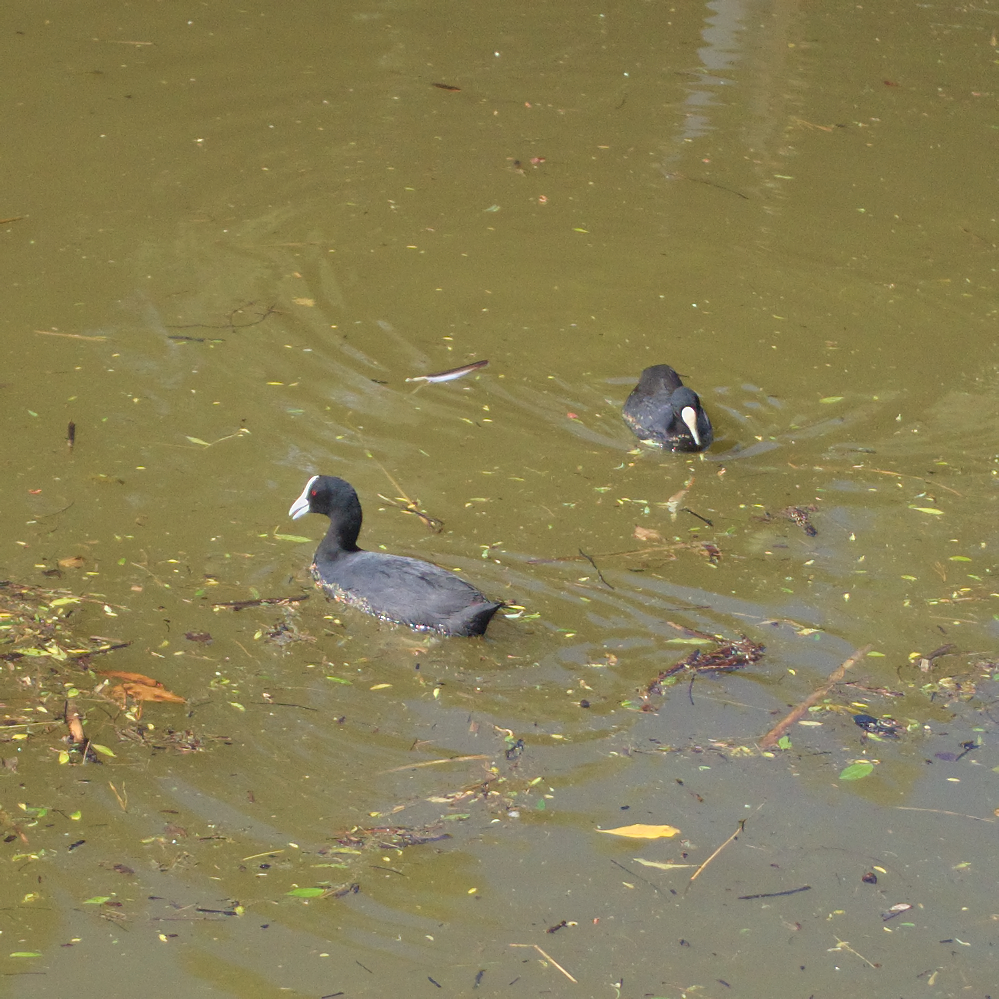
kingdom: Animalia
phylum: Chordata
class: Aves
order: Gruiformes
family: Rallidae
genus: Fulica
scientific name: Fulica atra
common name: Eurasian coot
